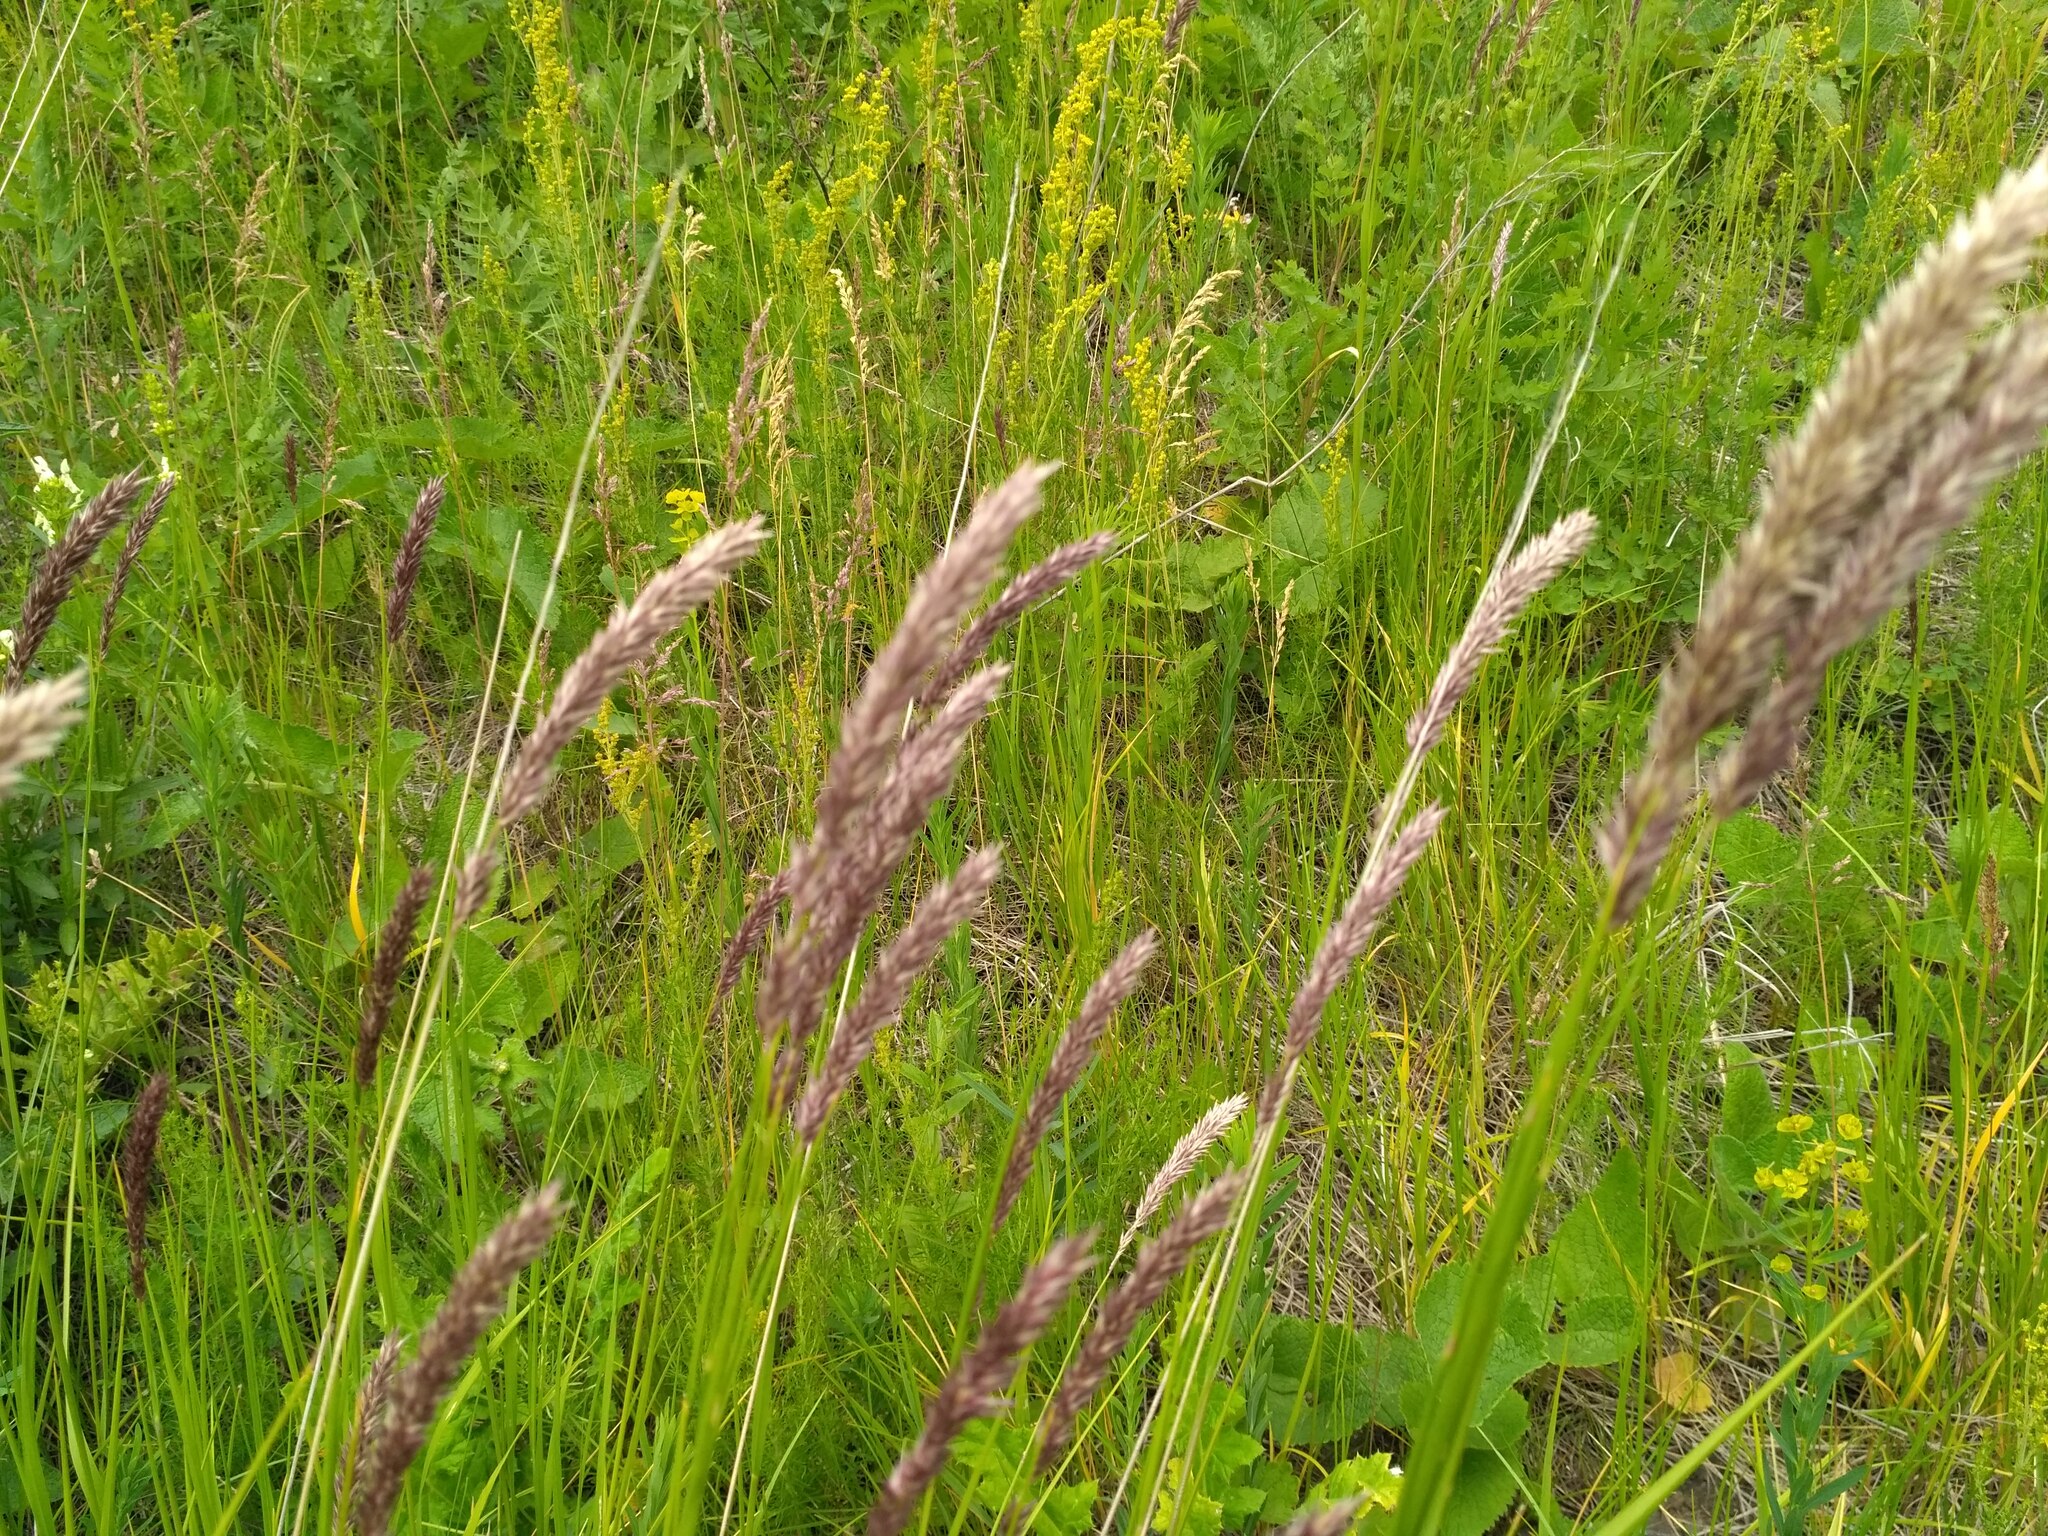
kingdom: Plantae
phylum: Tracheophyta
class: Liliopsida
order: Poales
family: Poaceae
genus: Melica
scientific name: Melica transsilvanica
